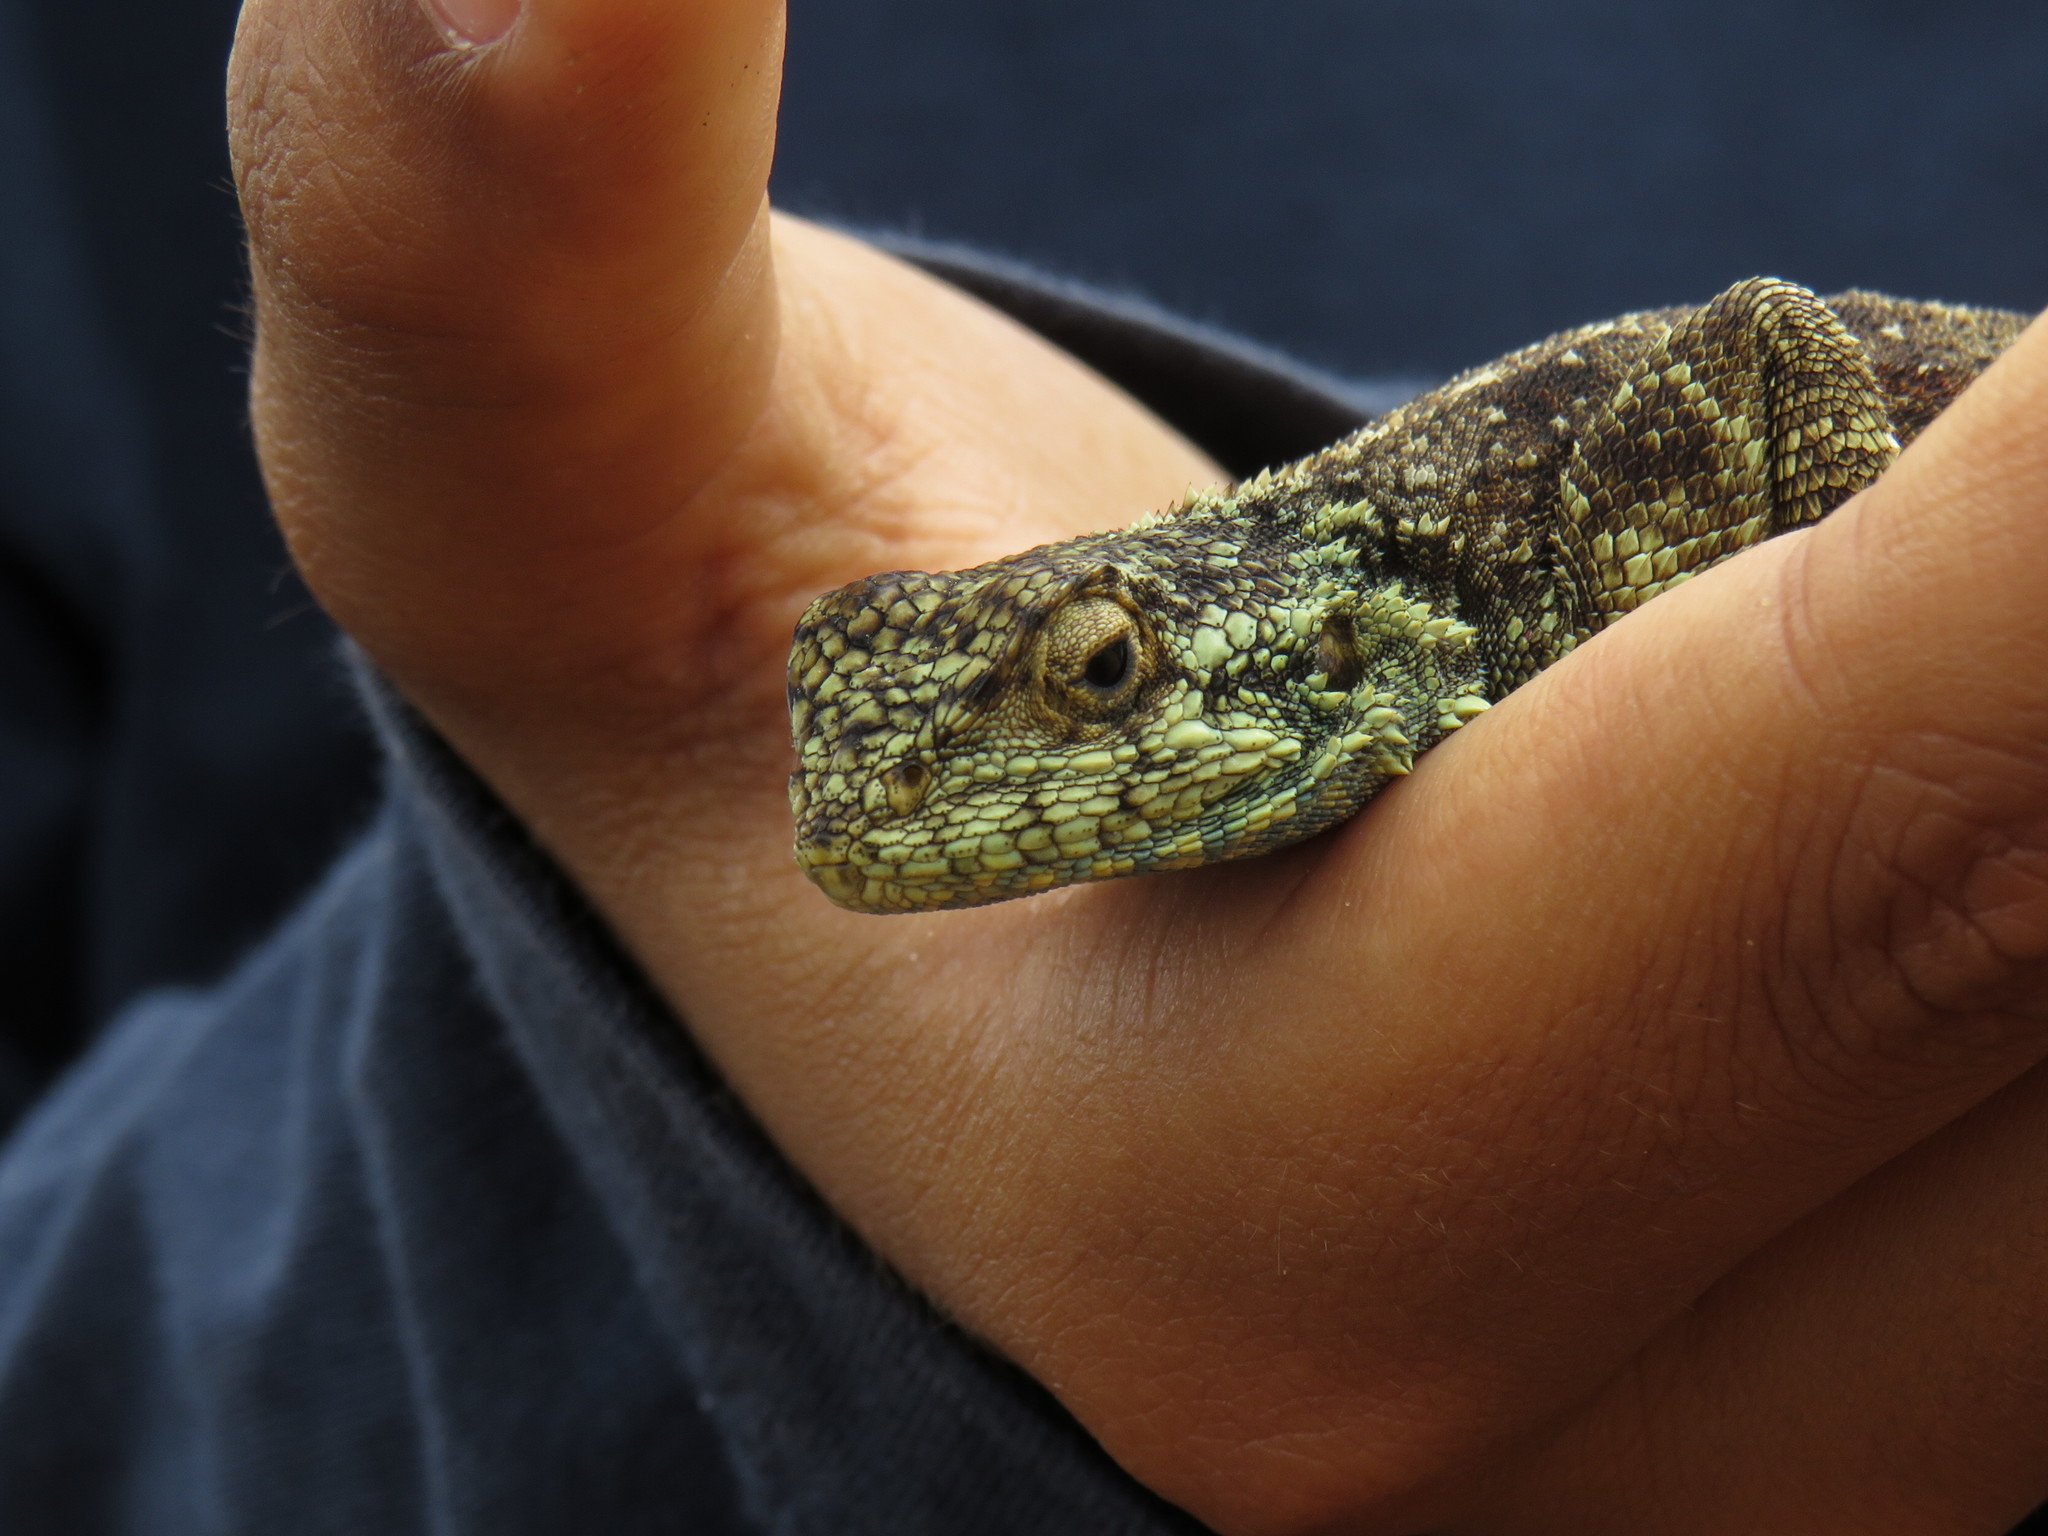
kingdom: Animalia
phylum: Chordata
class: Squamata
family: Agamidae
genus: Agama
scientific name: Agama atra
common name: Southern african rock agama
